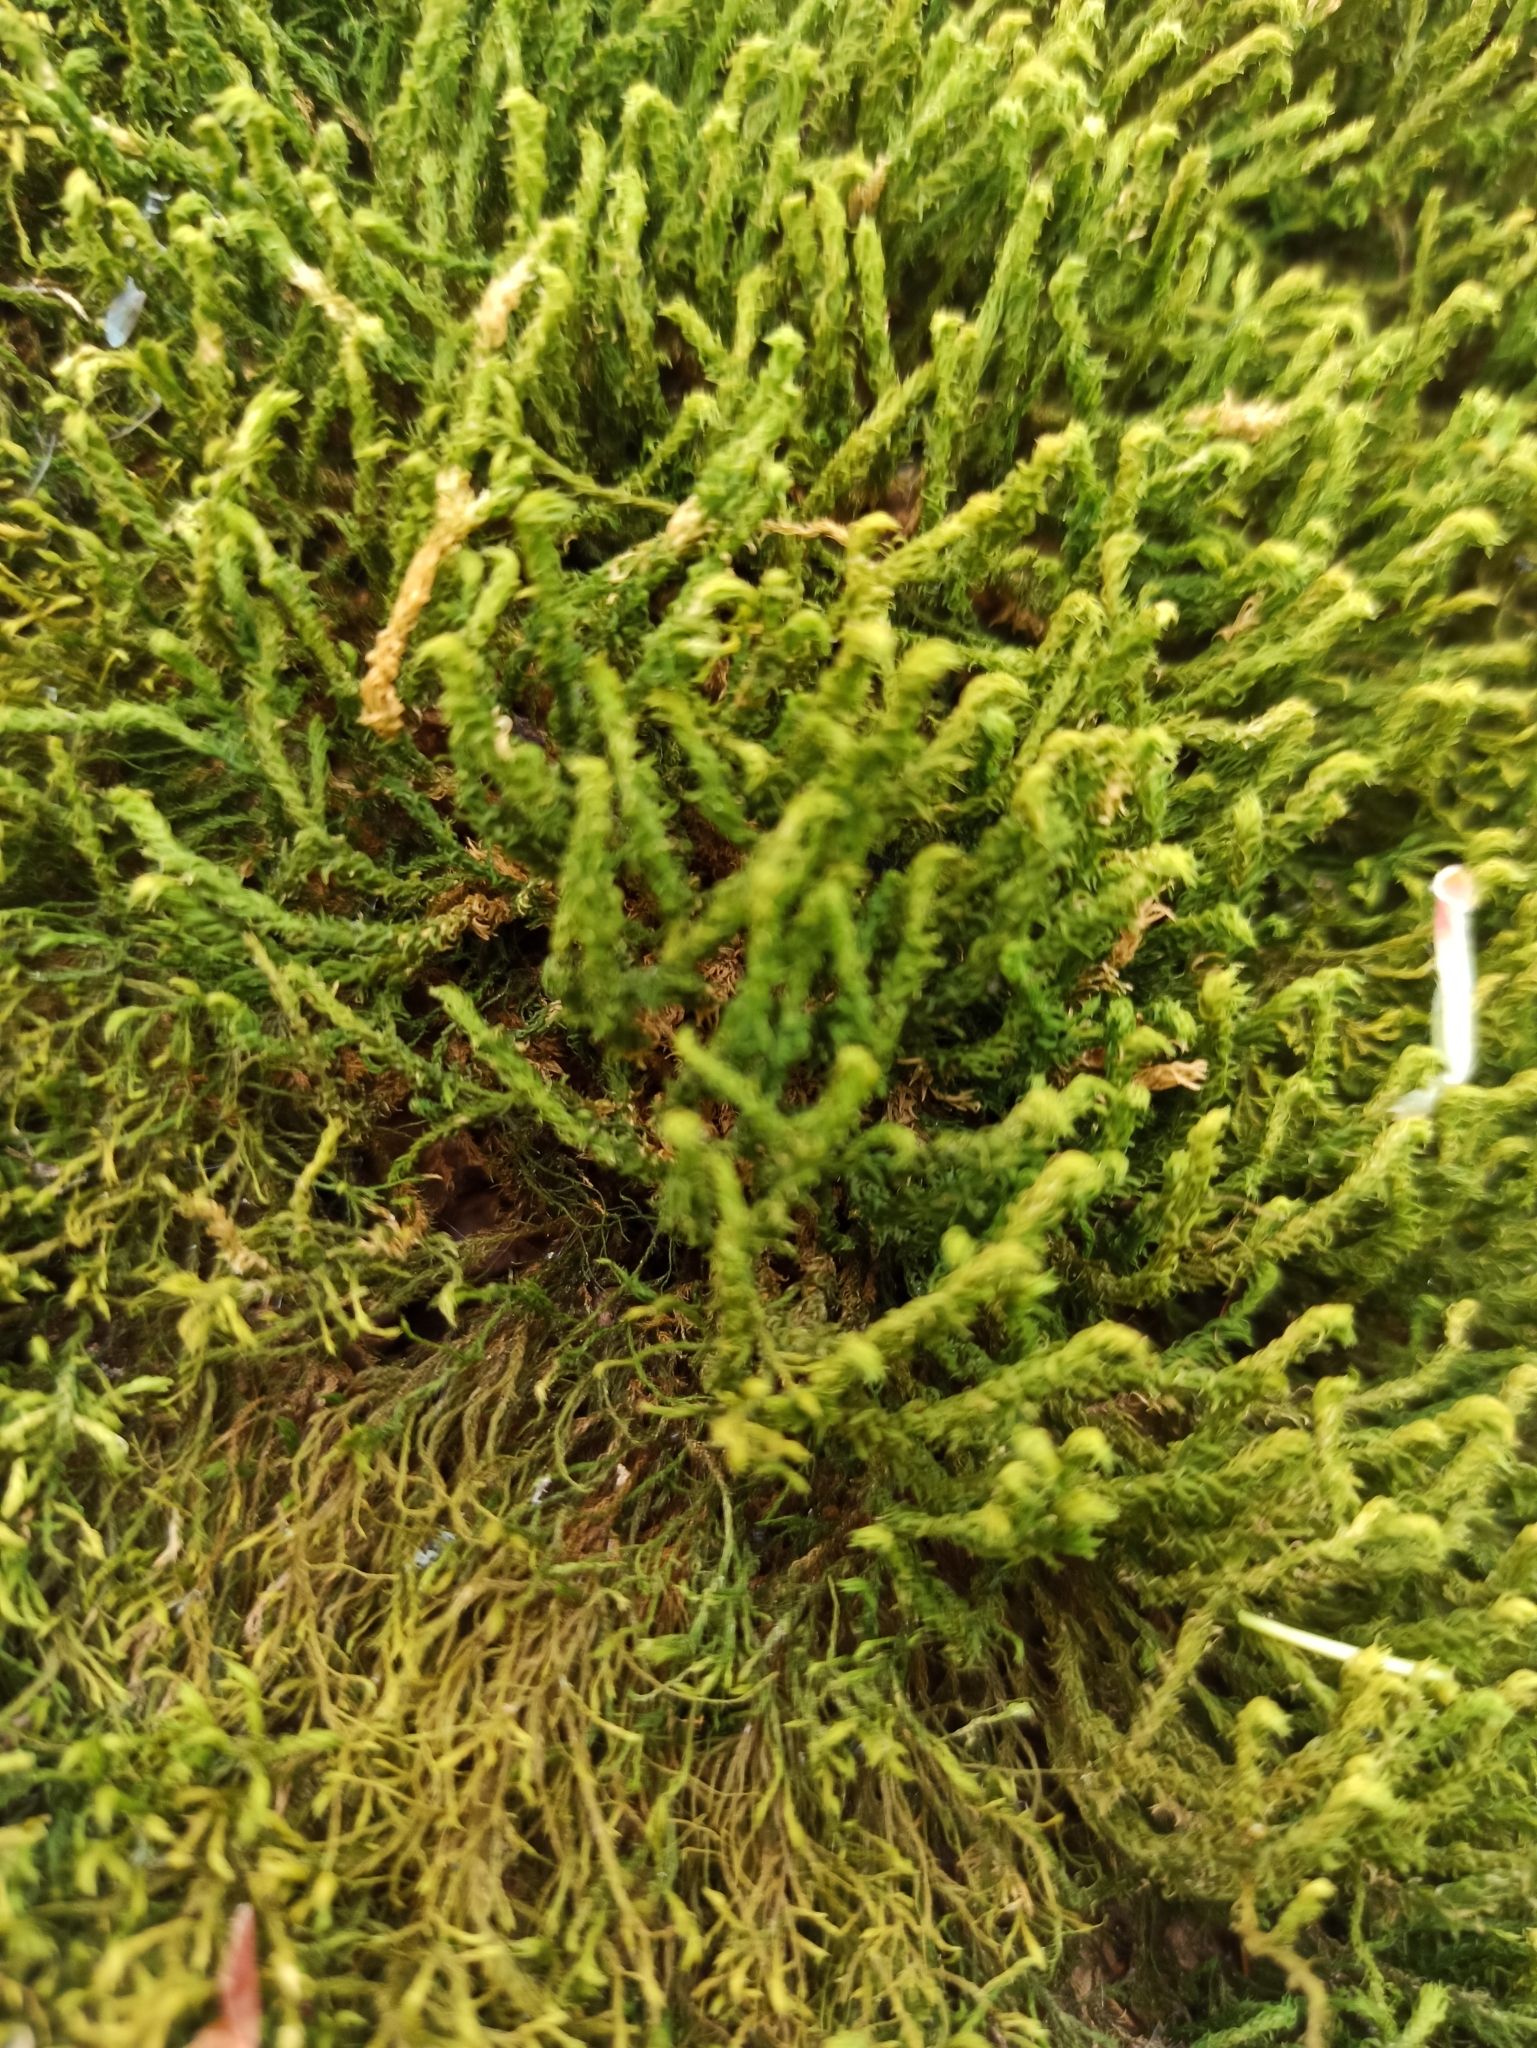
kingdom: Plantae
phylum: Bryophyta
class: Bryopsida
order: Hypnales
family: Anomodontaceae
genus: Anomodon
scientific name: Anomodon viticulosus
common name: Tall anomodon
